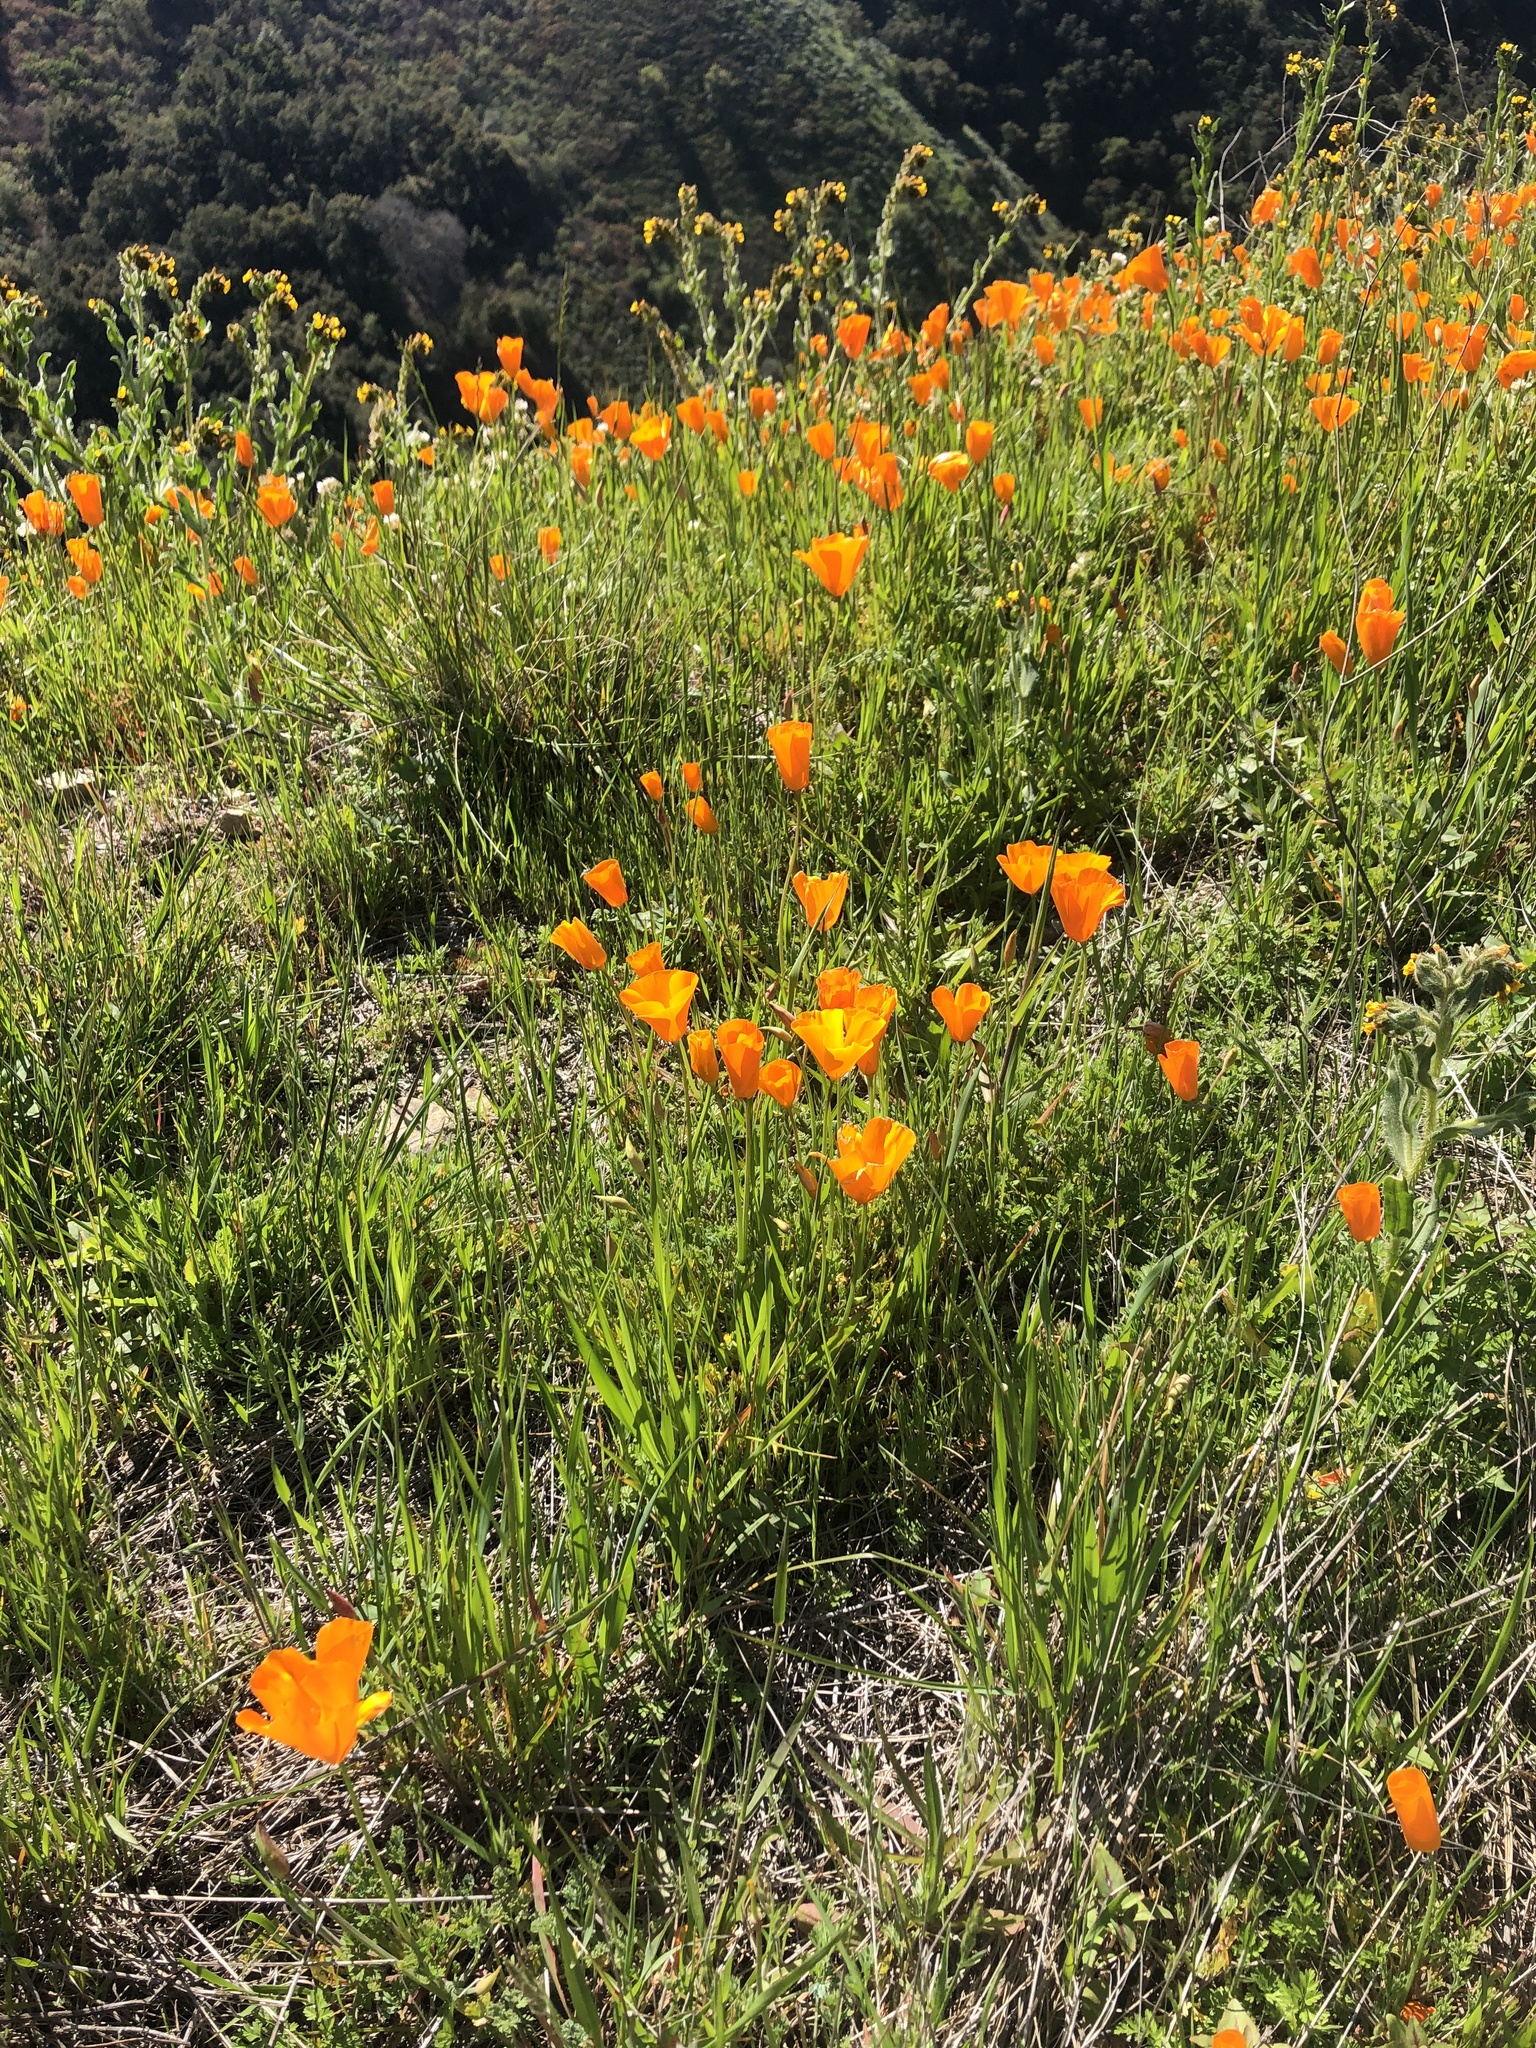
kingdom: Plantae
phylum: Tracheophyta
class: Magnoliopsida
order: Ranunculales
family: Papaveraceae
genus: Eschscholzia
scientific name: Eschscholzia caespitosa
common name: Tufted california-poppy
